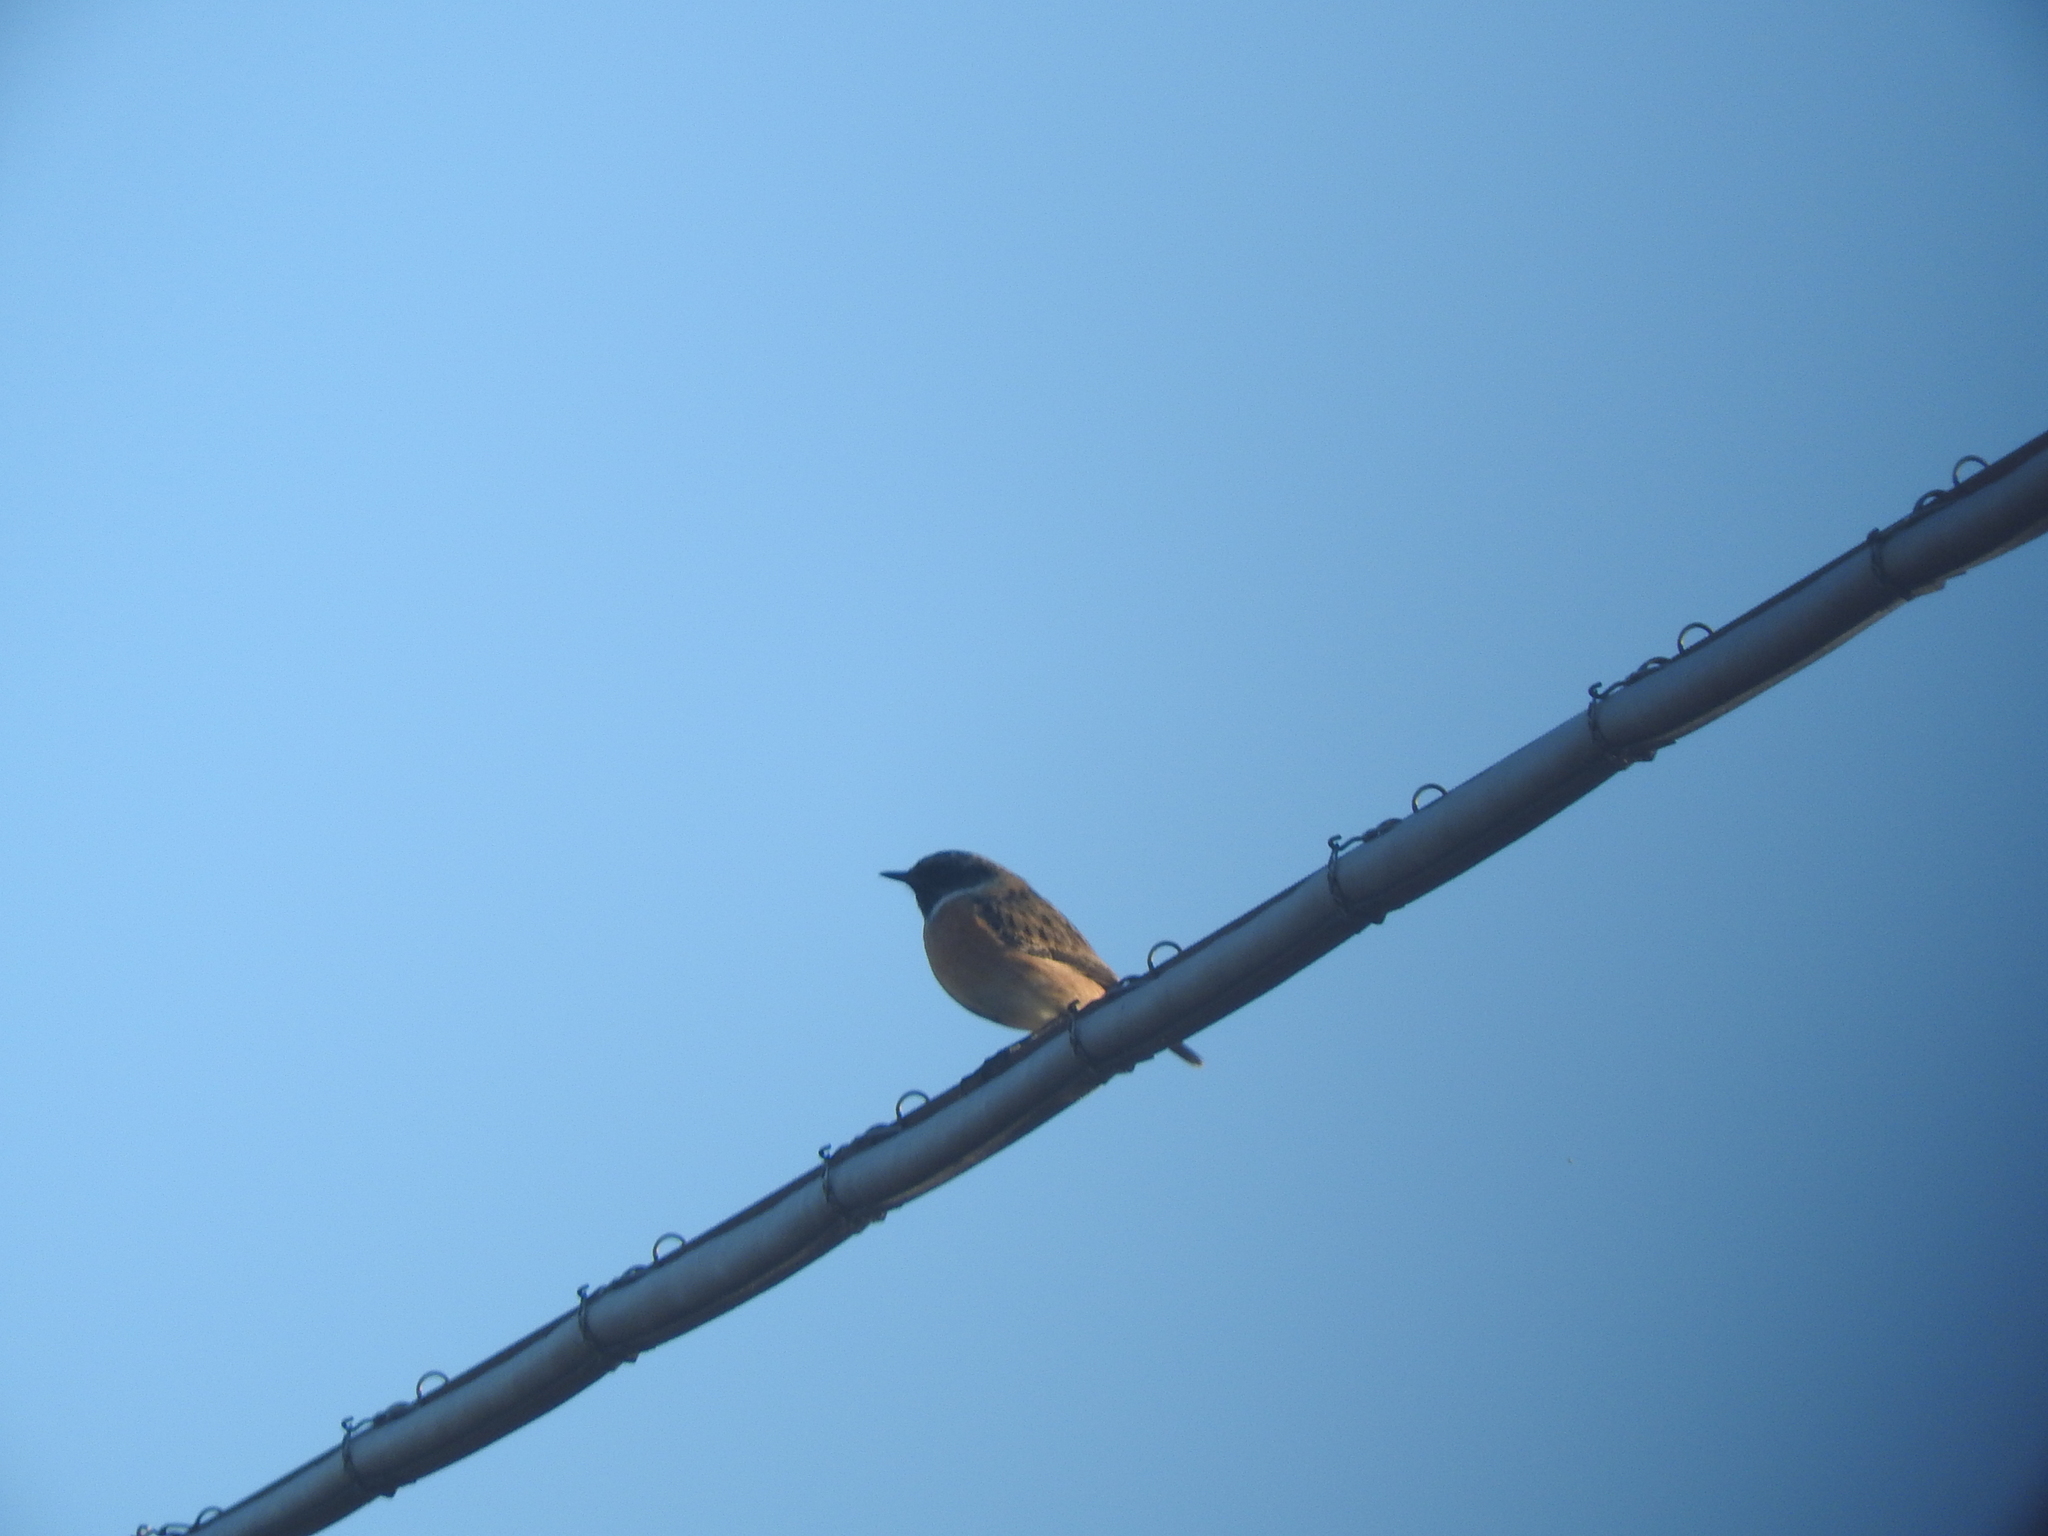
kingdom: Animalia
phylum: Chordata
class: Aves
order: Passeriformes
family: Muscicapidae
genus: Saxicola
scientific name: Saxicola rubicola
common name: European stonechat
